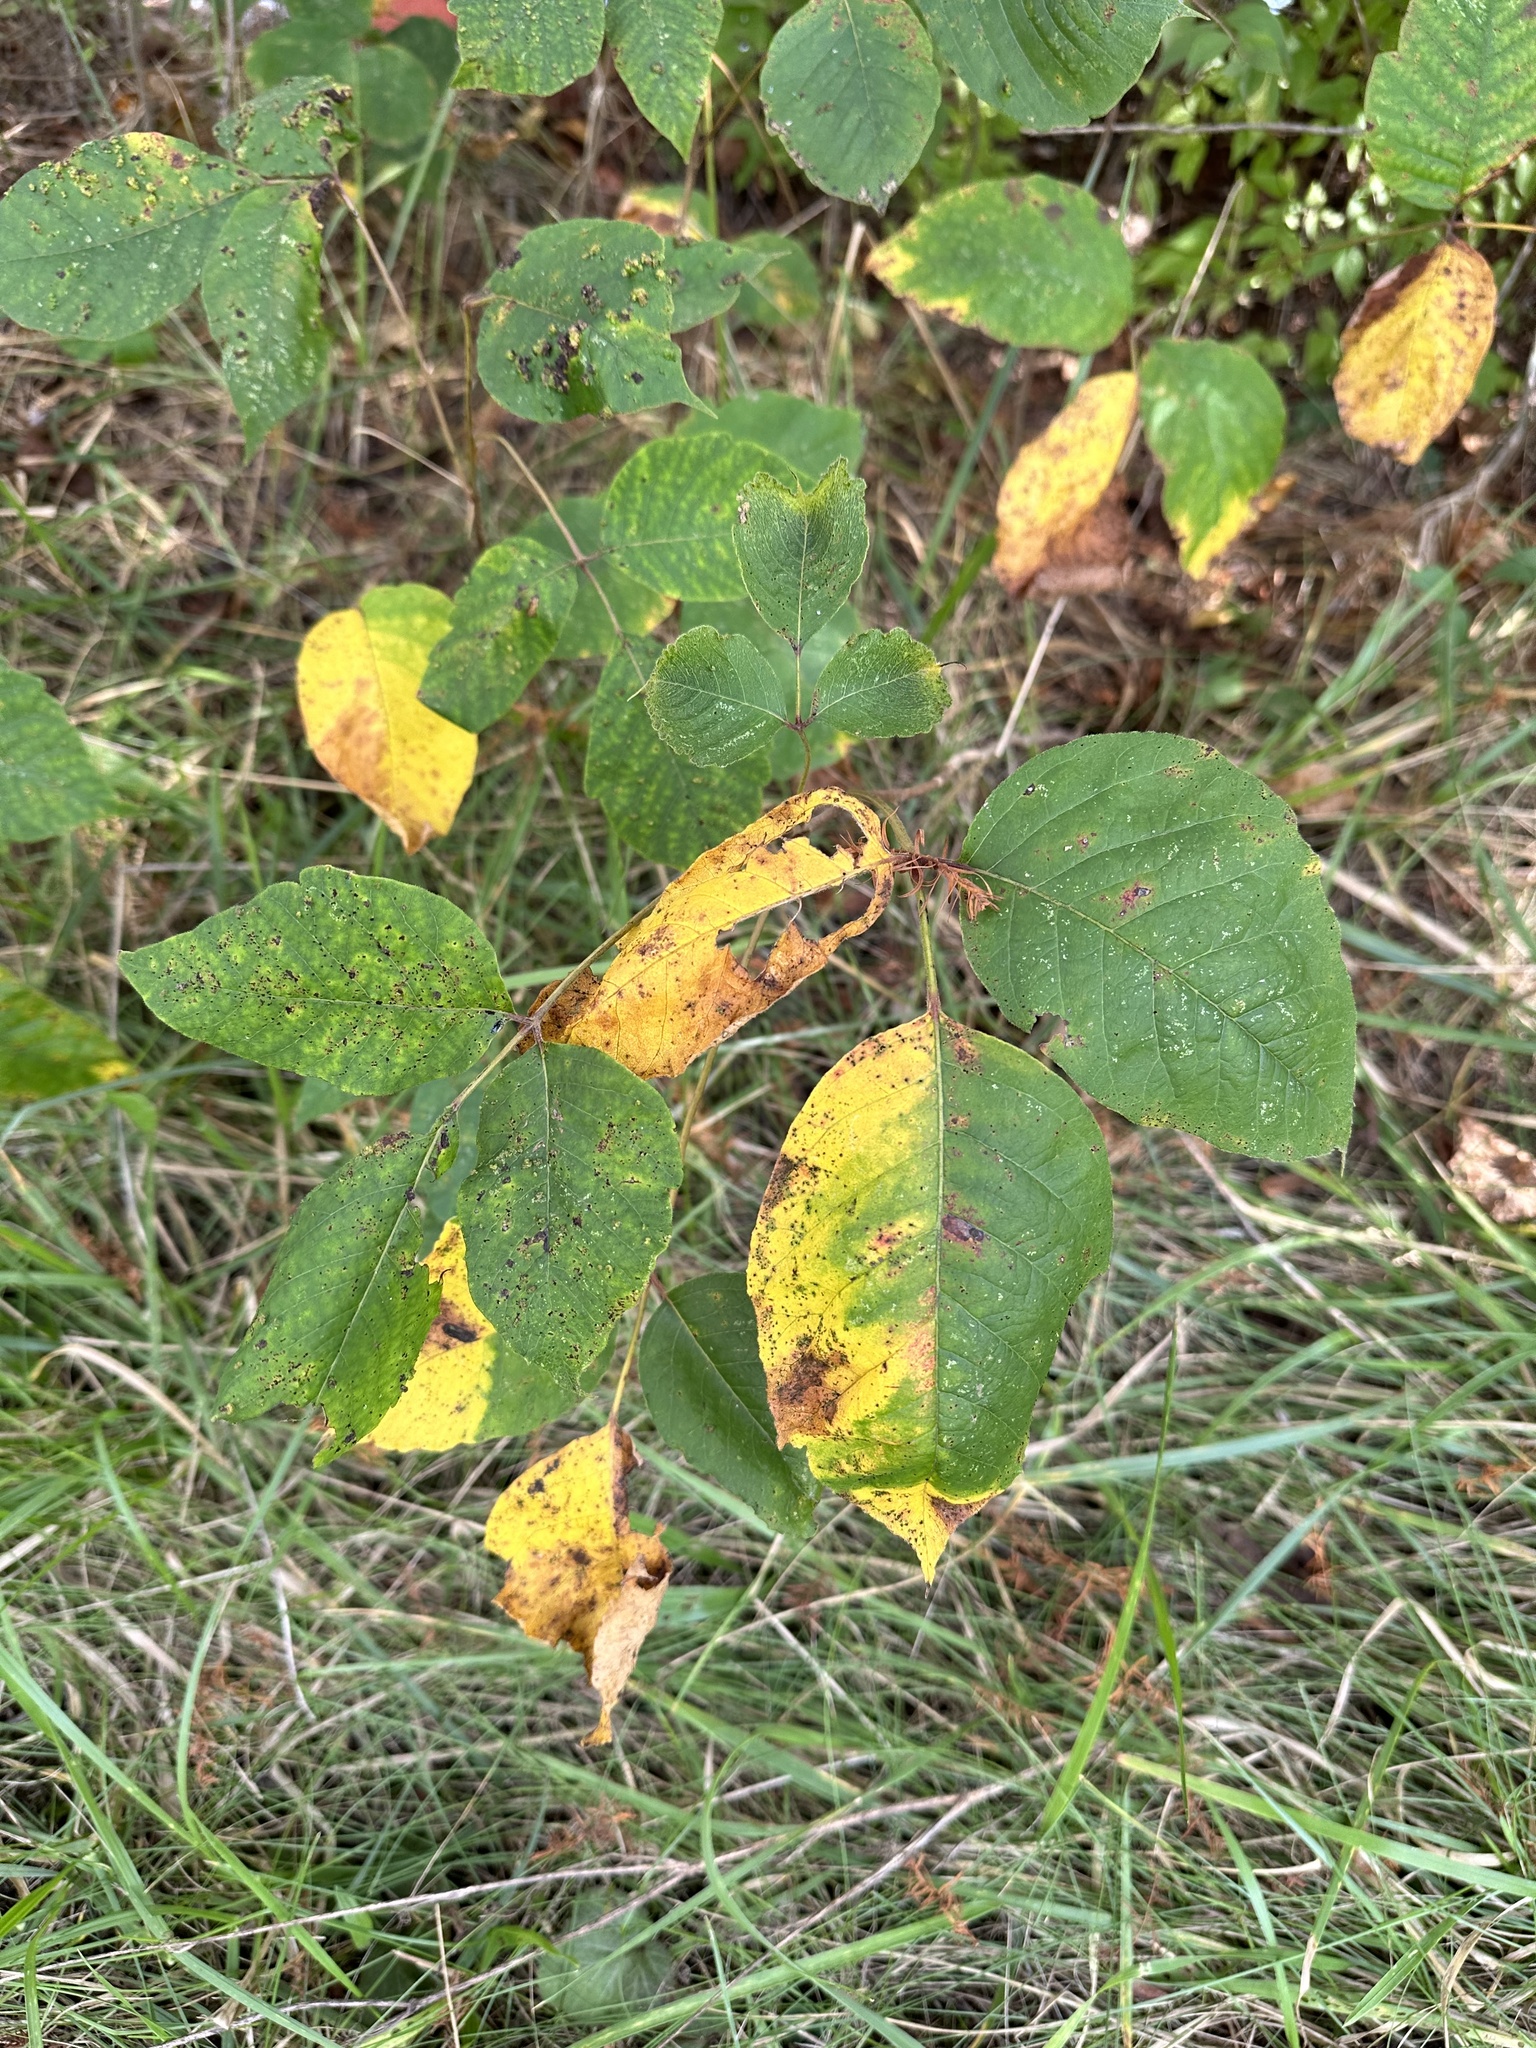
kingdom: Plantae
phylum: Tracheophyta
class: Magnoliopsida
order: Sapindales
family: Anacardiaceae
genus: Toxicodendron
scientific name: Toxicodendron radicans
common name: Poison ivy
